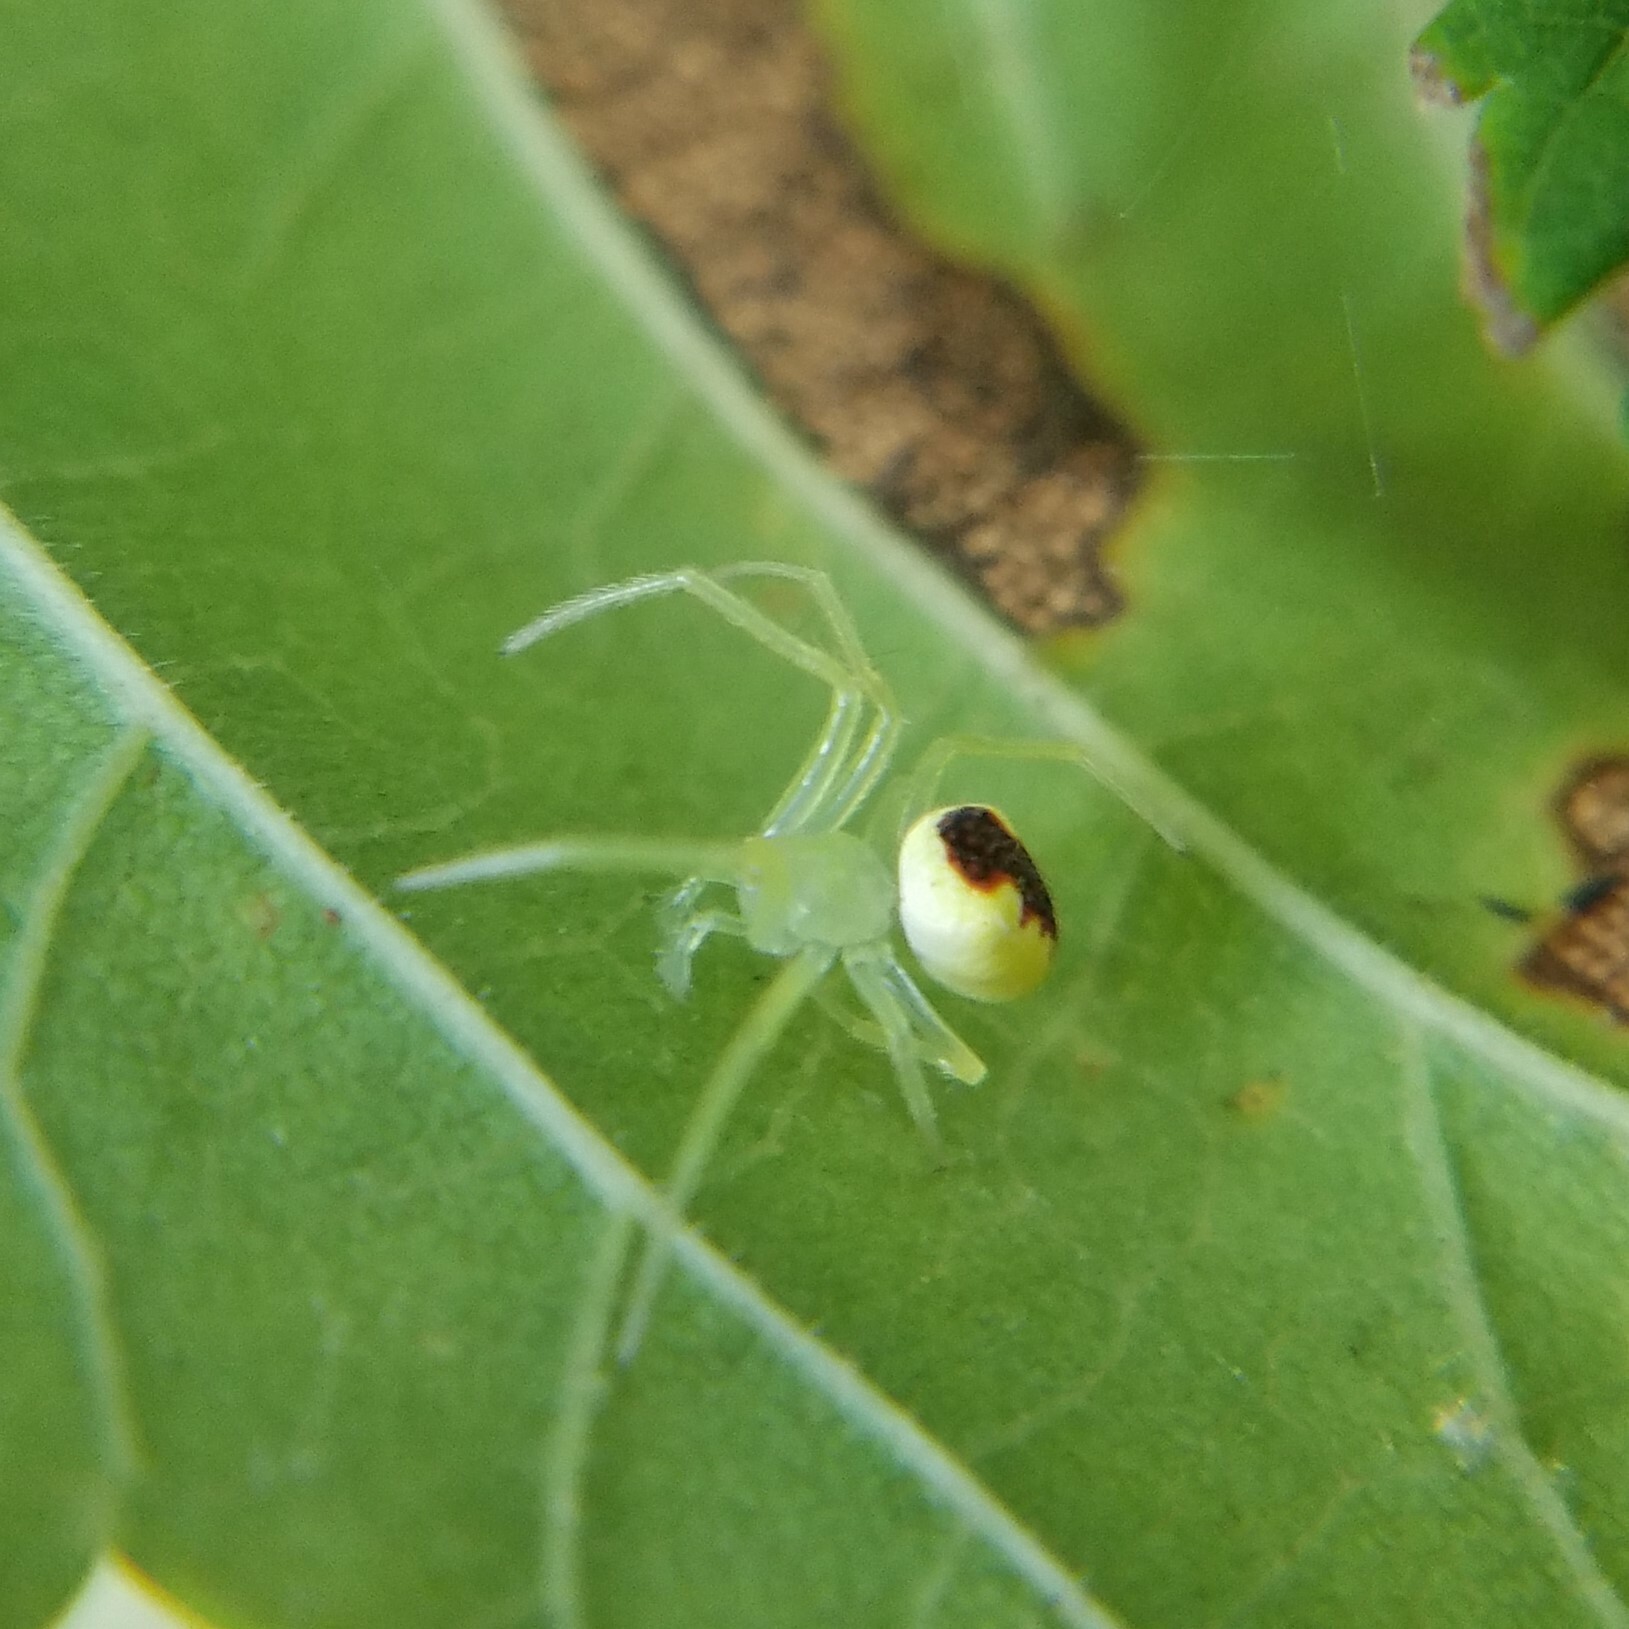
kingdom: Animalia
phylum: Arthropoda
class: Arachnida
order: Araneae
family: Araneidae
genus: Araneus
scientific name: Araneus niveus
